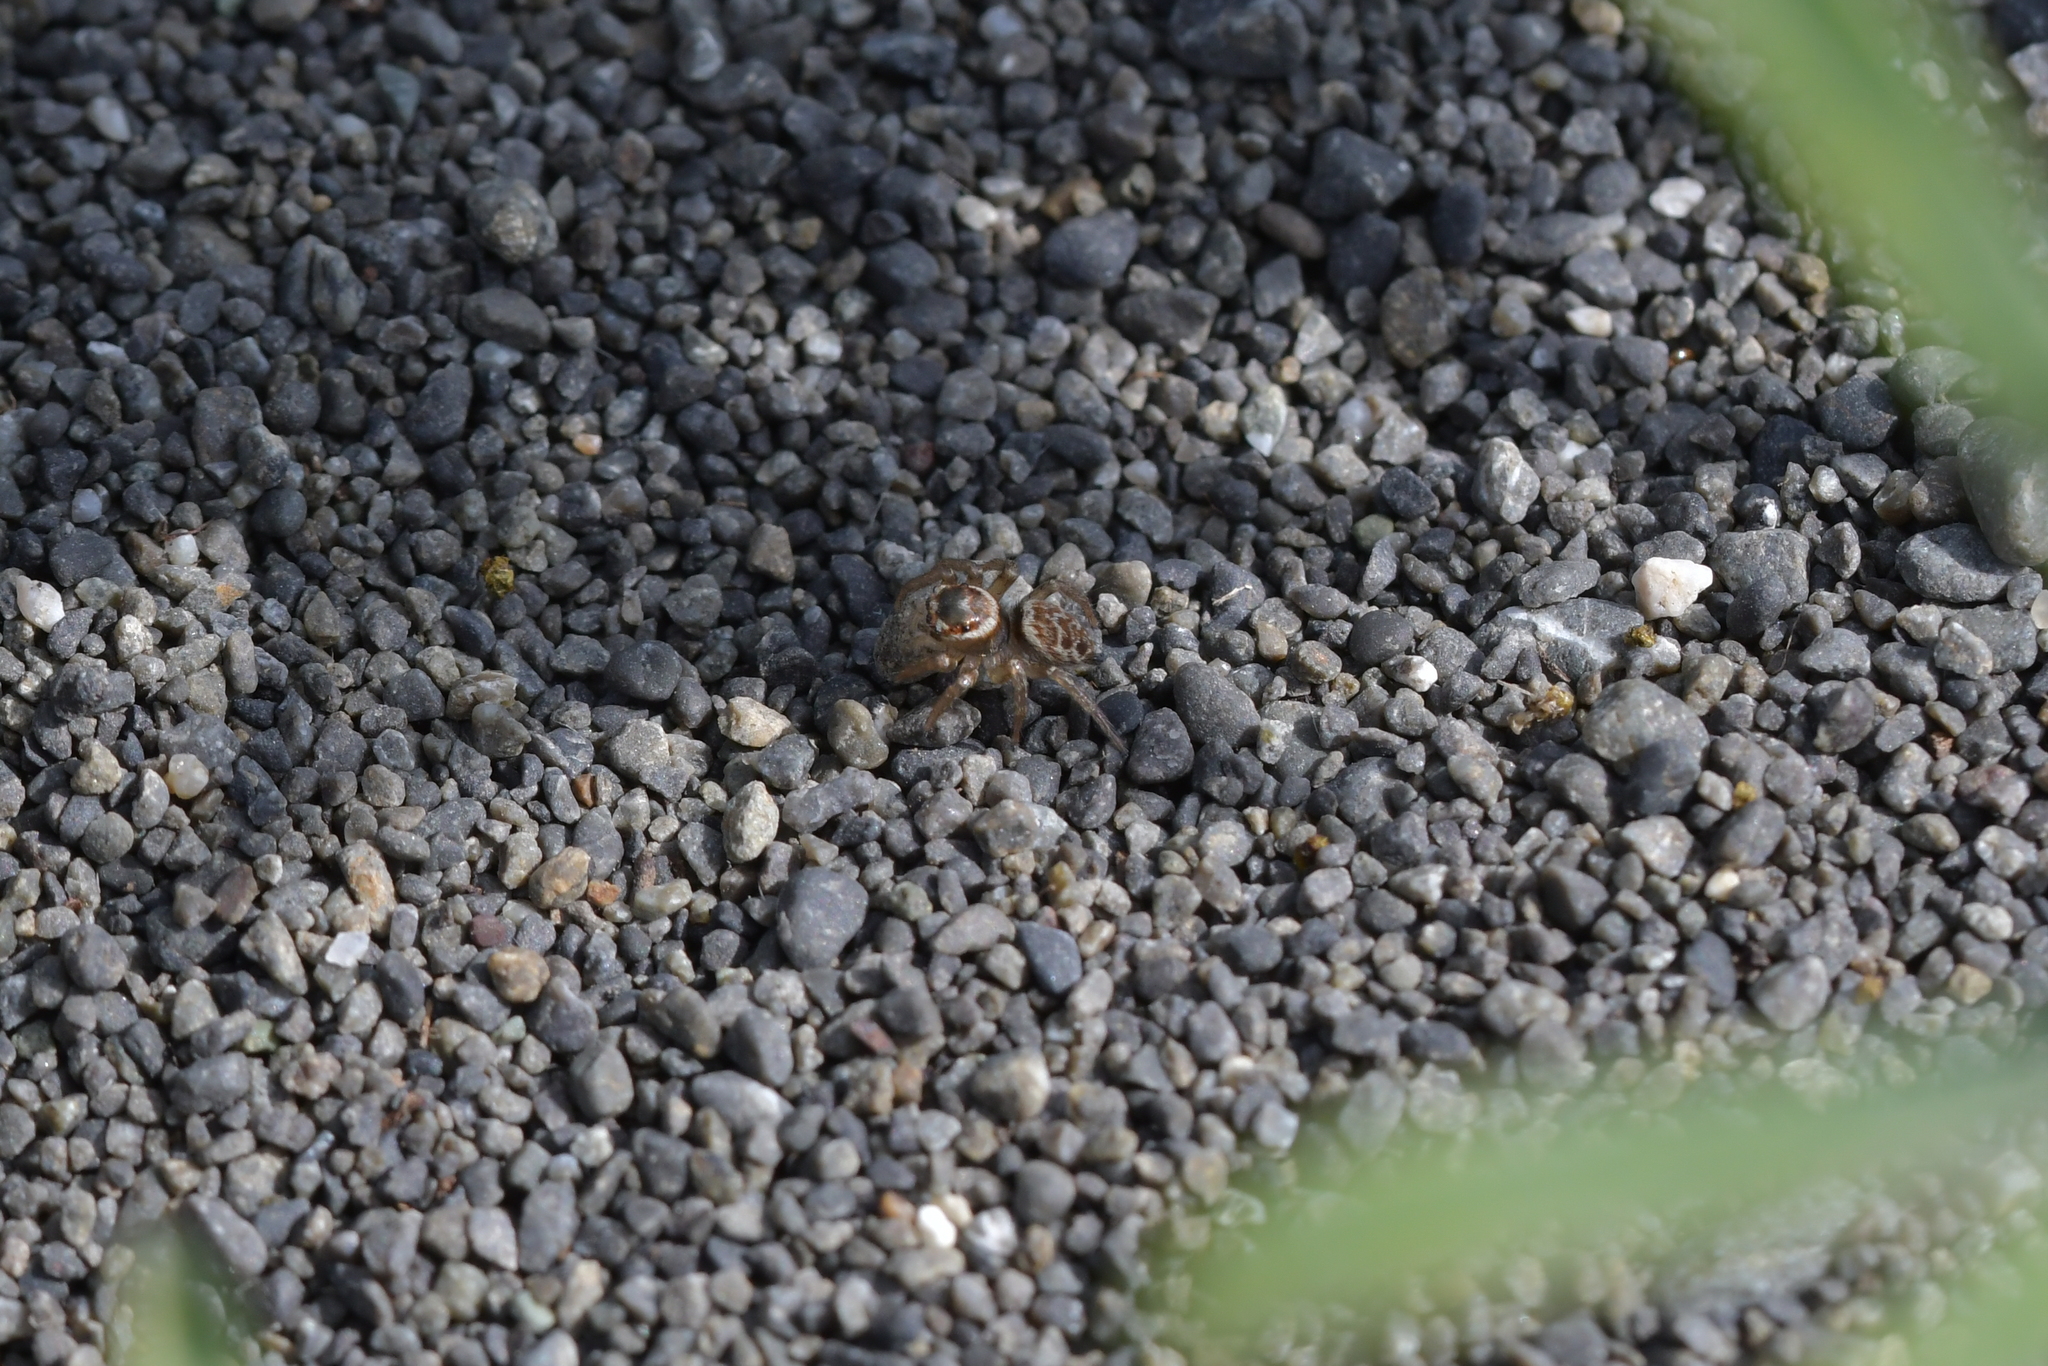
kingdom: Animalia
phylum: Arthropoda
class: Arachnida
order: Araneae
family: Salticidae
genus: Maratus
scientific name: Maratus griseus
